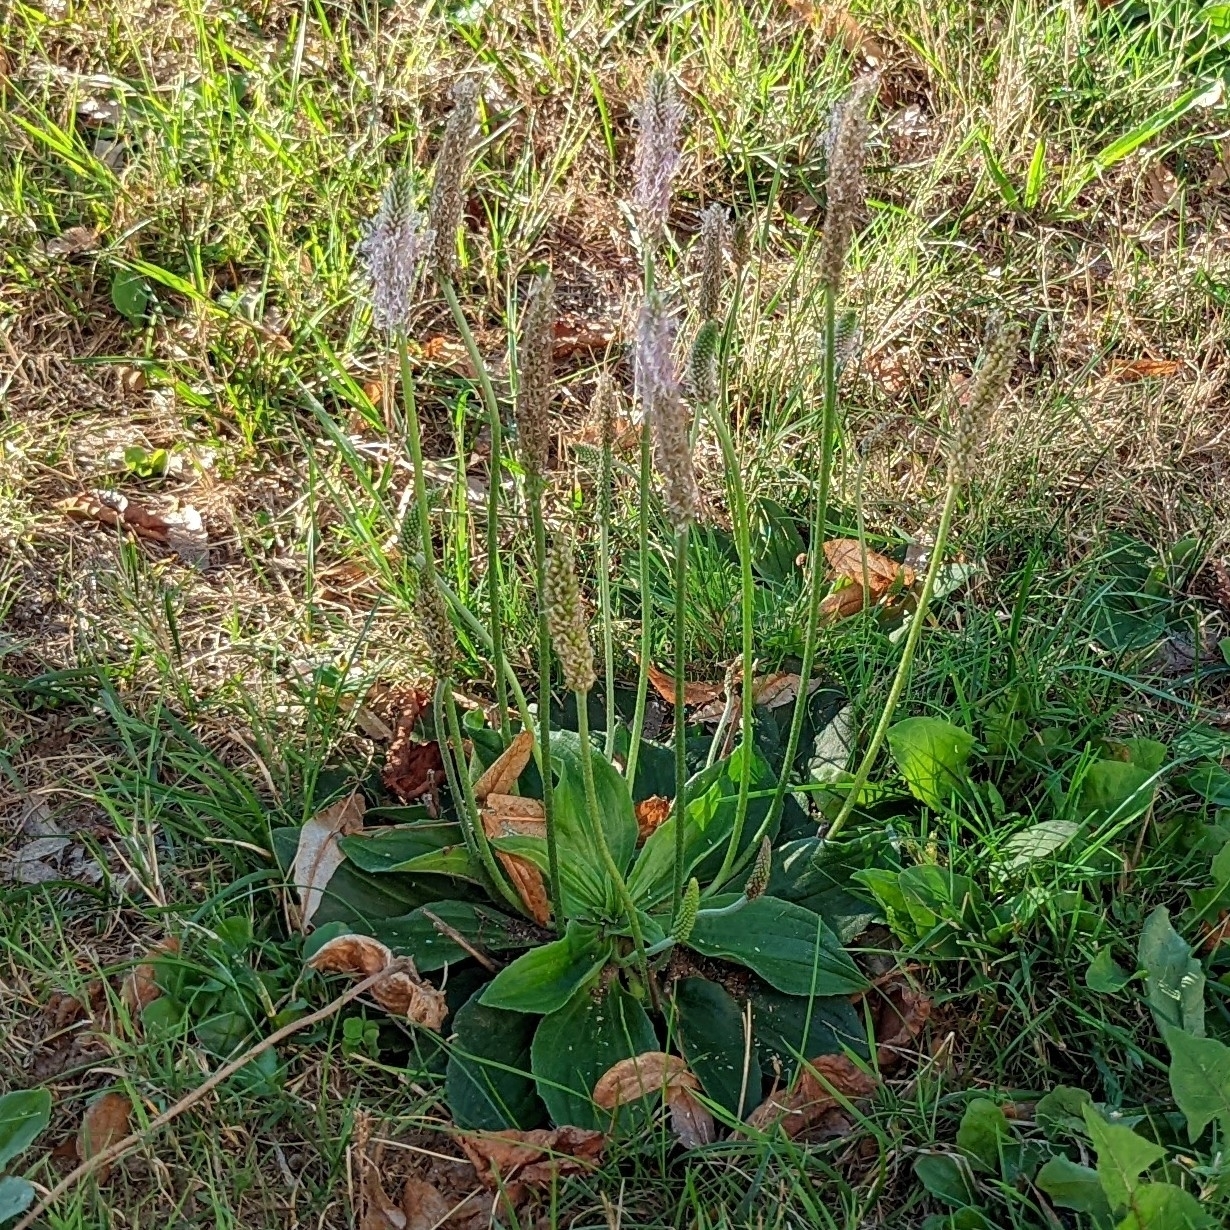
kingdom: Plantae
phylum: Tracheophyta
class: Magnoliopsida
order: Lamiales
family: Plantaginaceae
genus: Plantago
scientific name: Plantago media
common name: Hoary plantain
